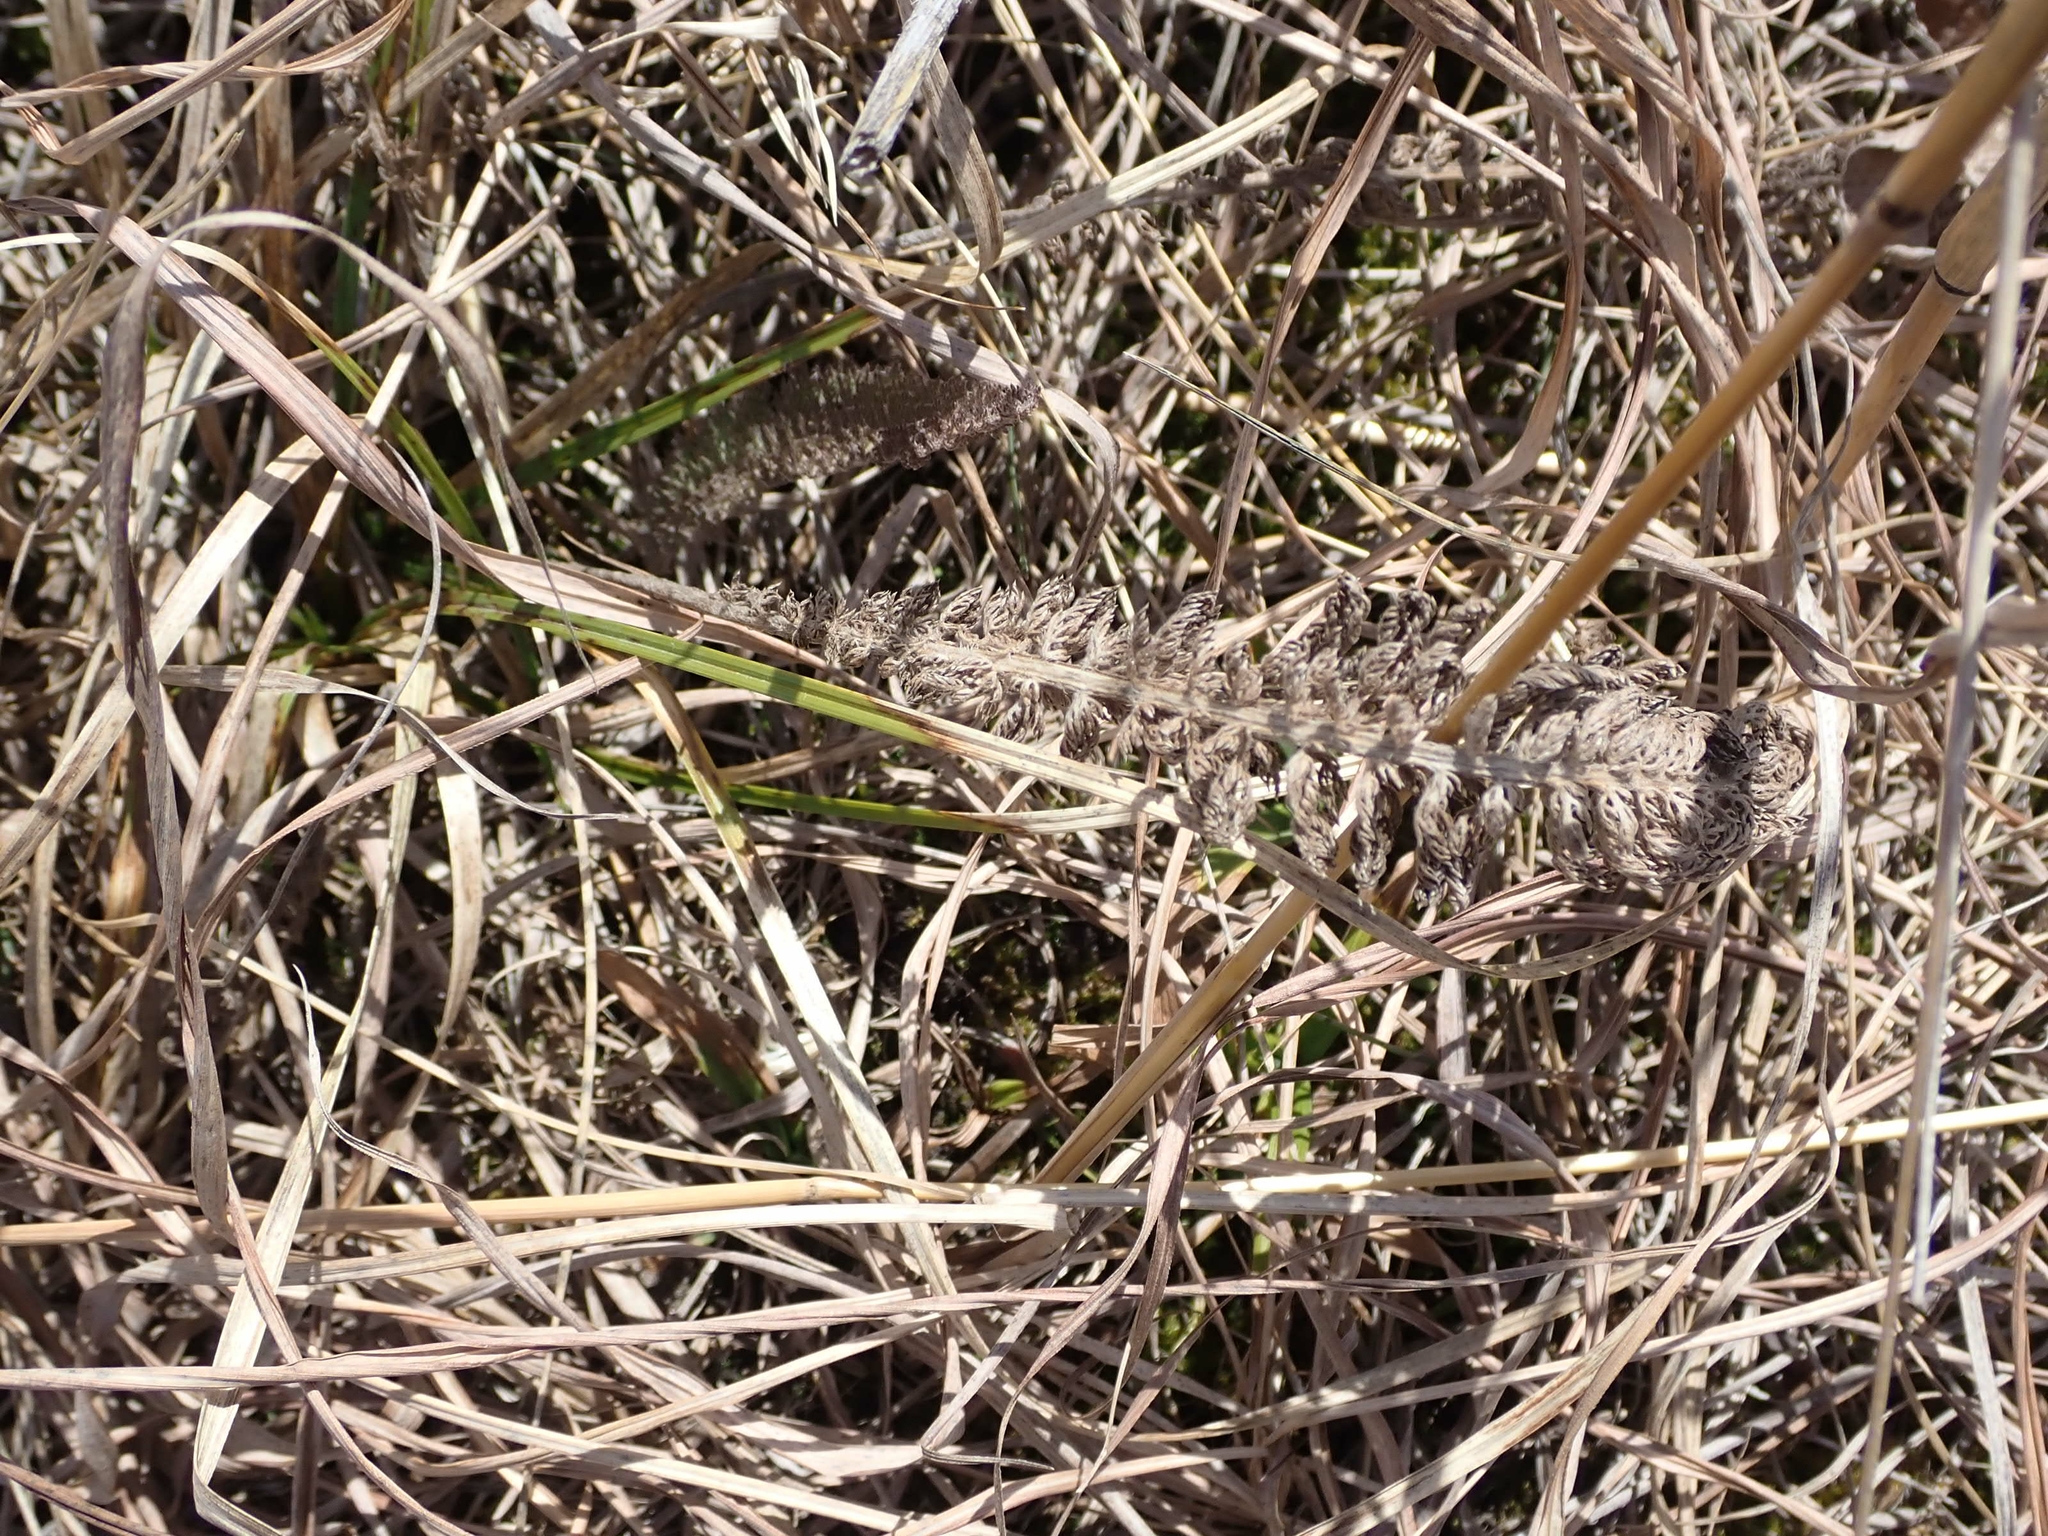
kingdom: Plantae
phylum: Tracheophyta
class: Magnoliopsida
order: Asterales
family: Asteraceae
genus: Achillea
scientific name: Achillea millefolium
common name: Yarrow
